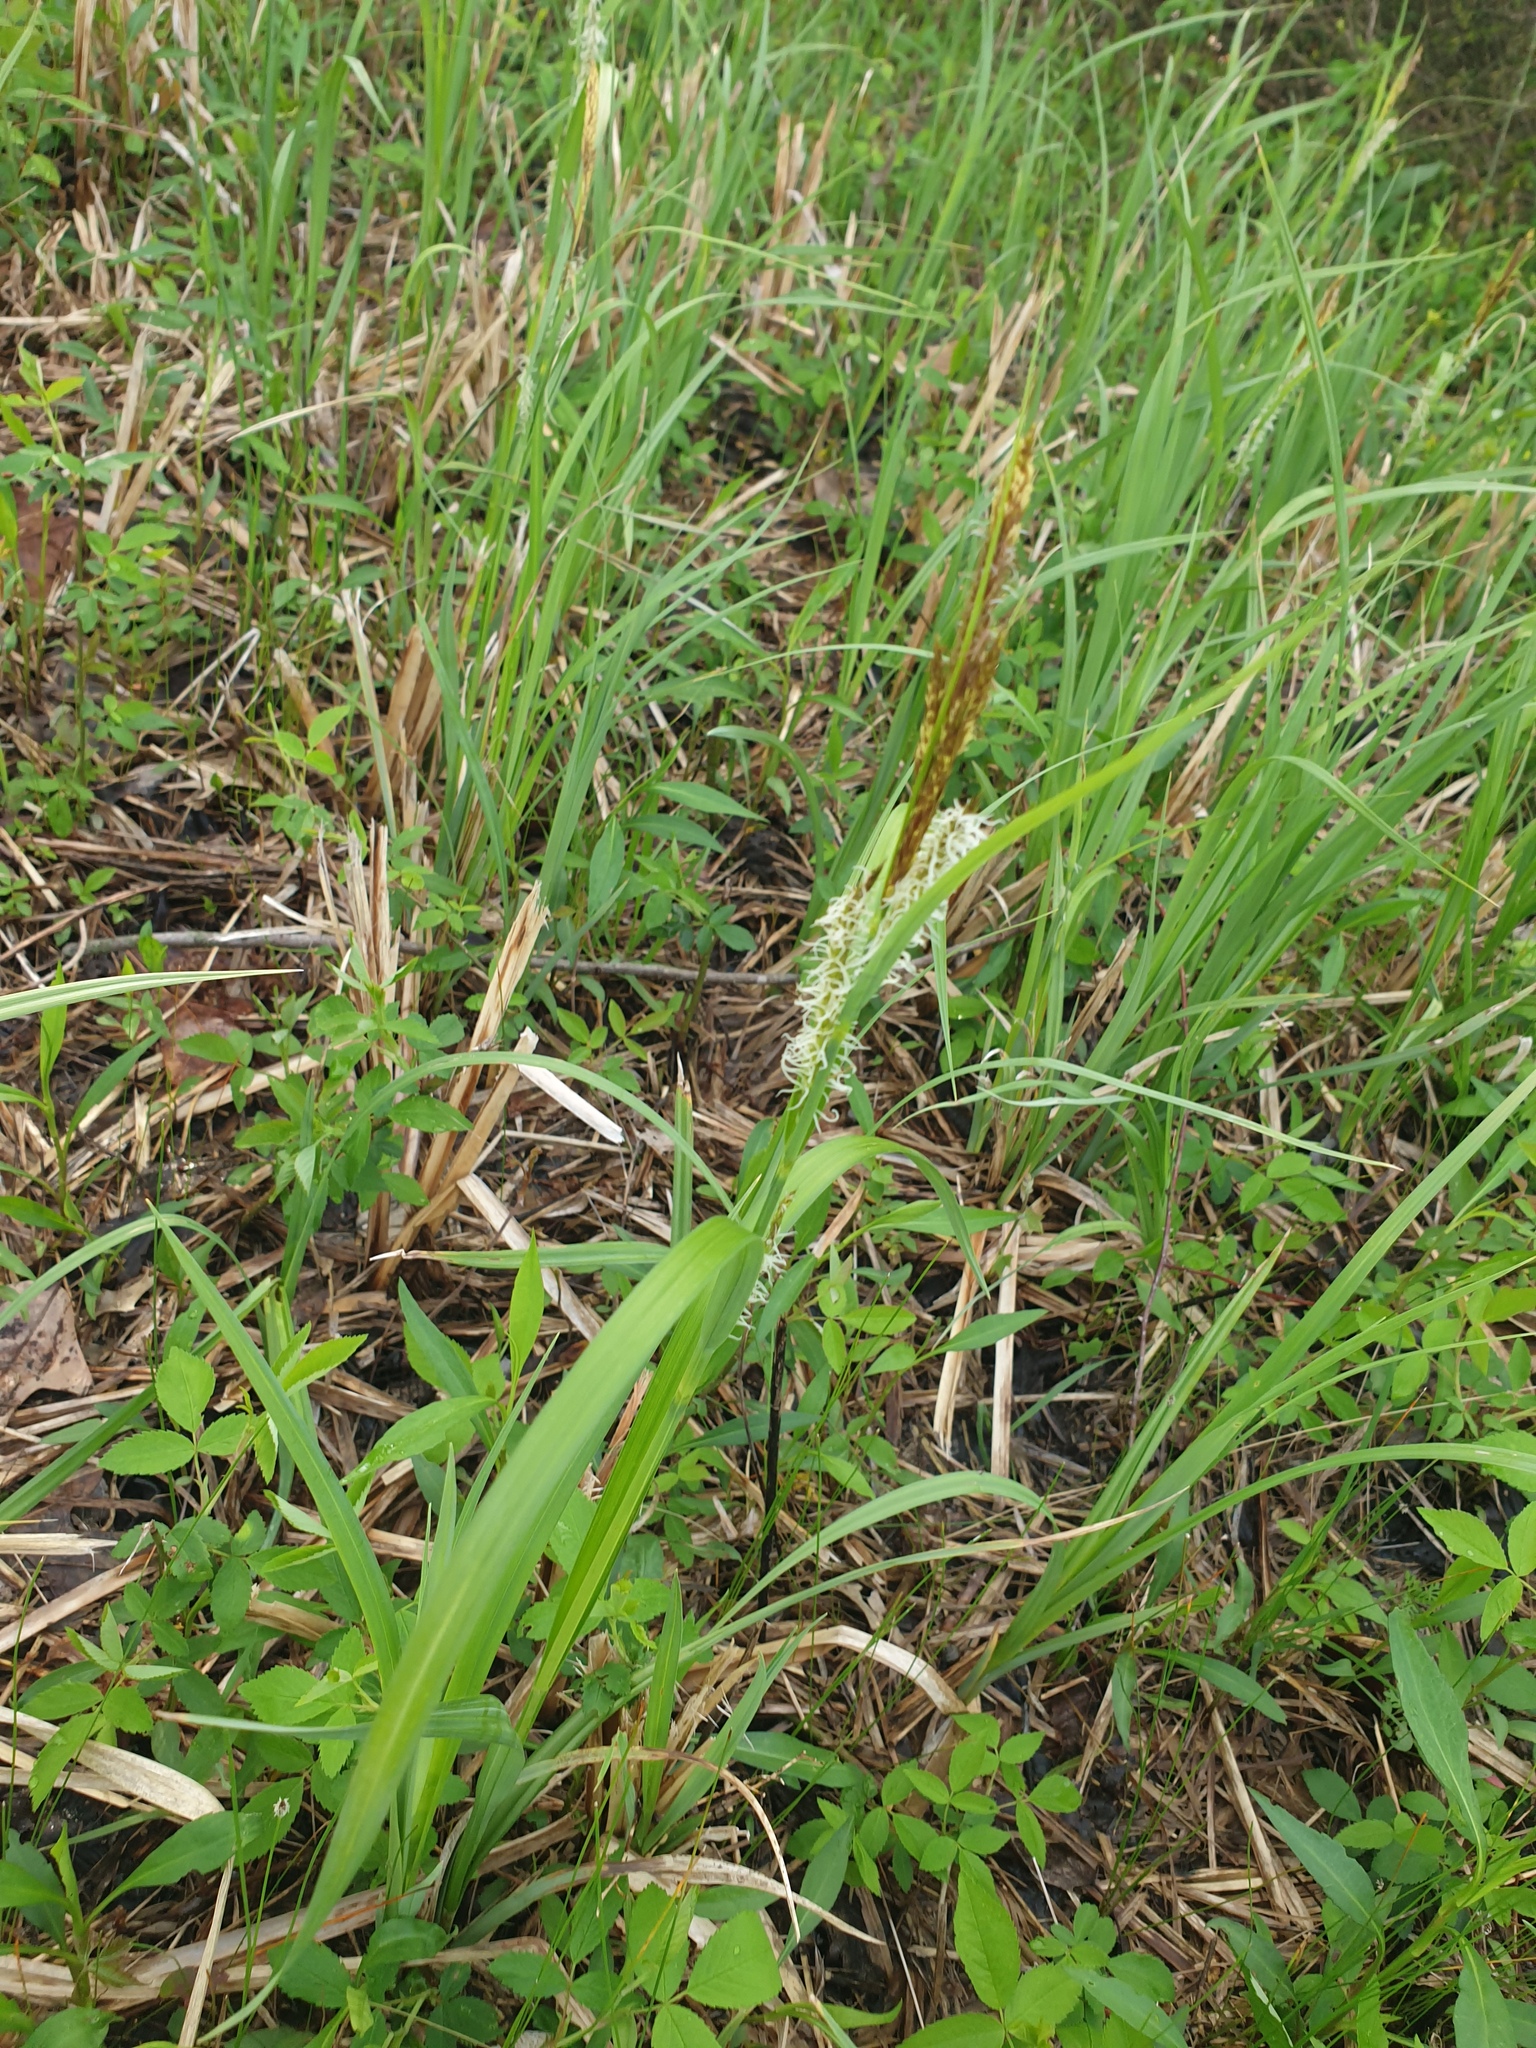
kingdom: Plantae
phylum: Tracheophyta
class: Liliopsida
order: Poales
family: Cyperaceae
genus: Carex
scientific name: Carex hyalinolepis
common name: Shoreline sedge
